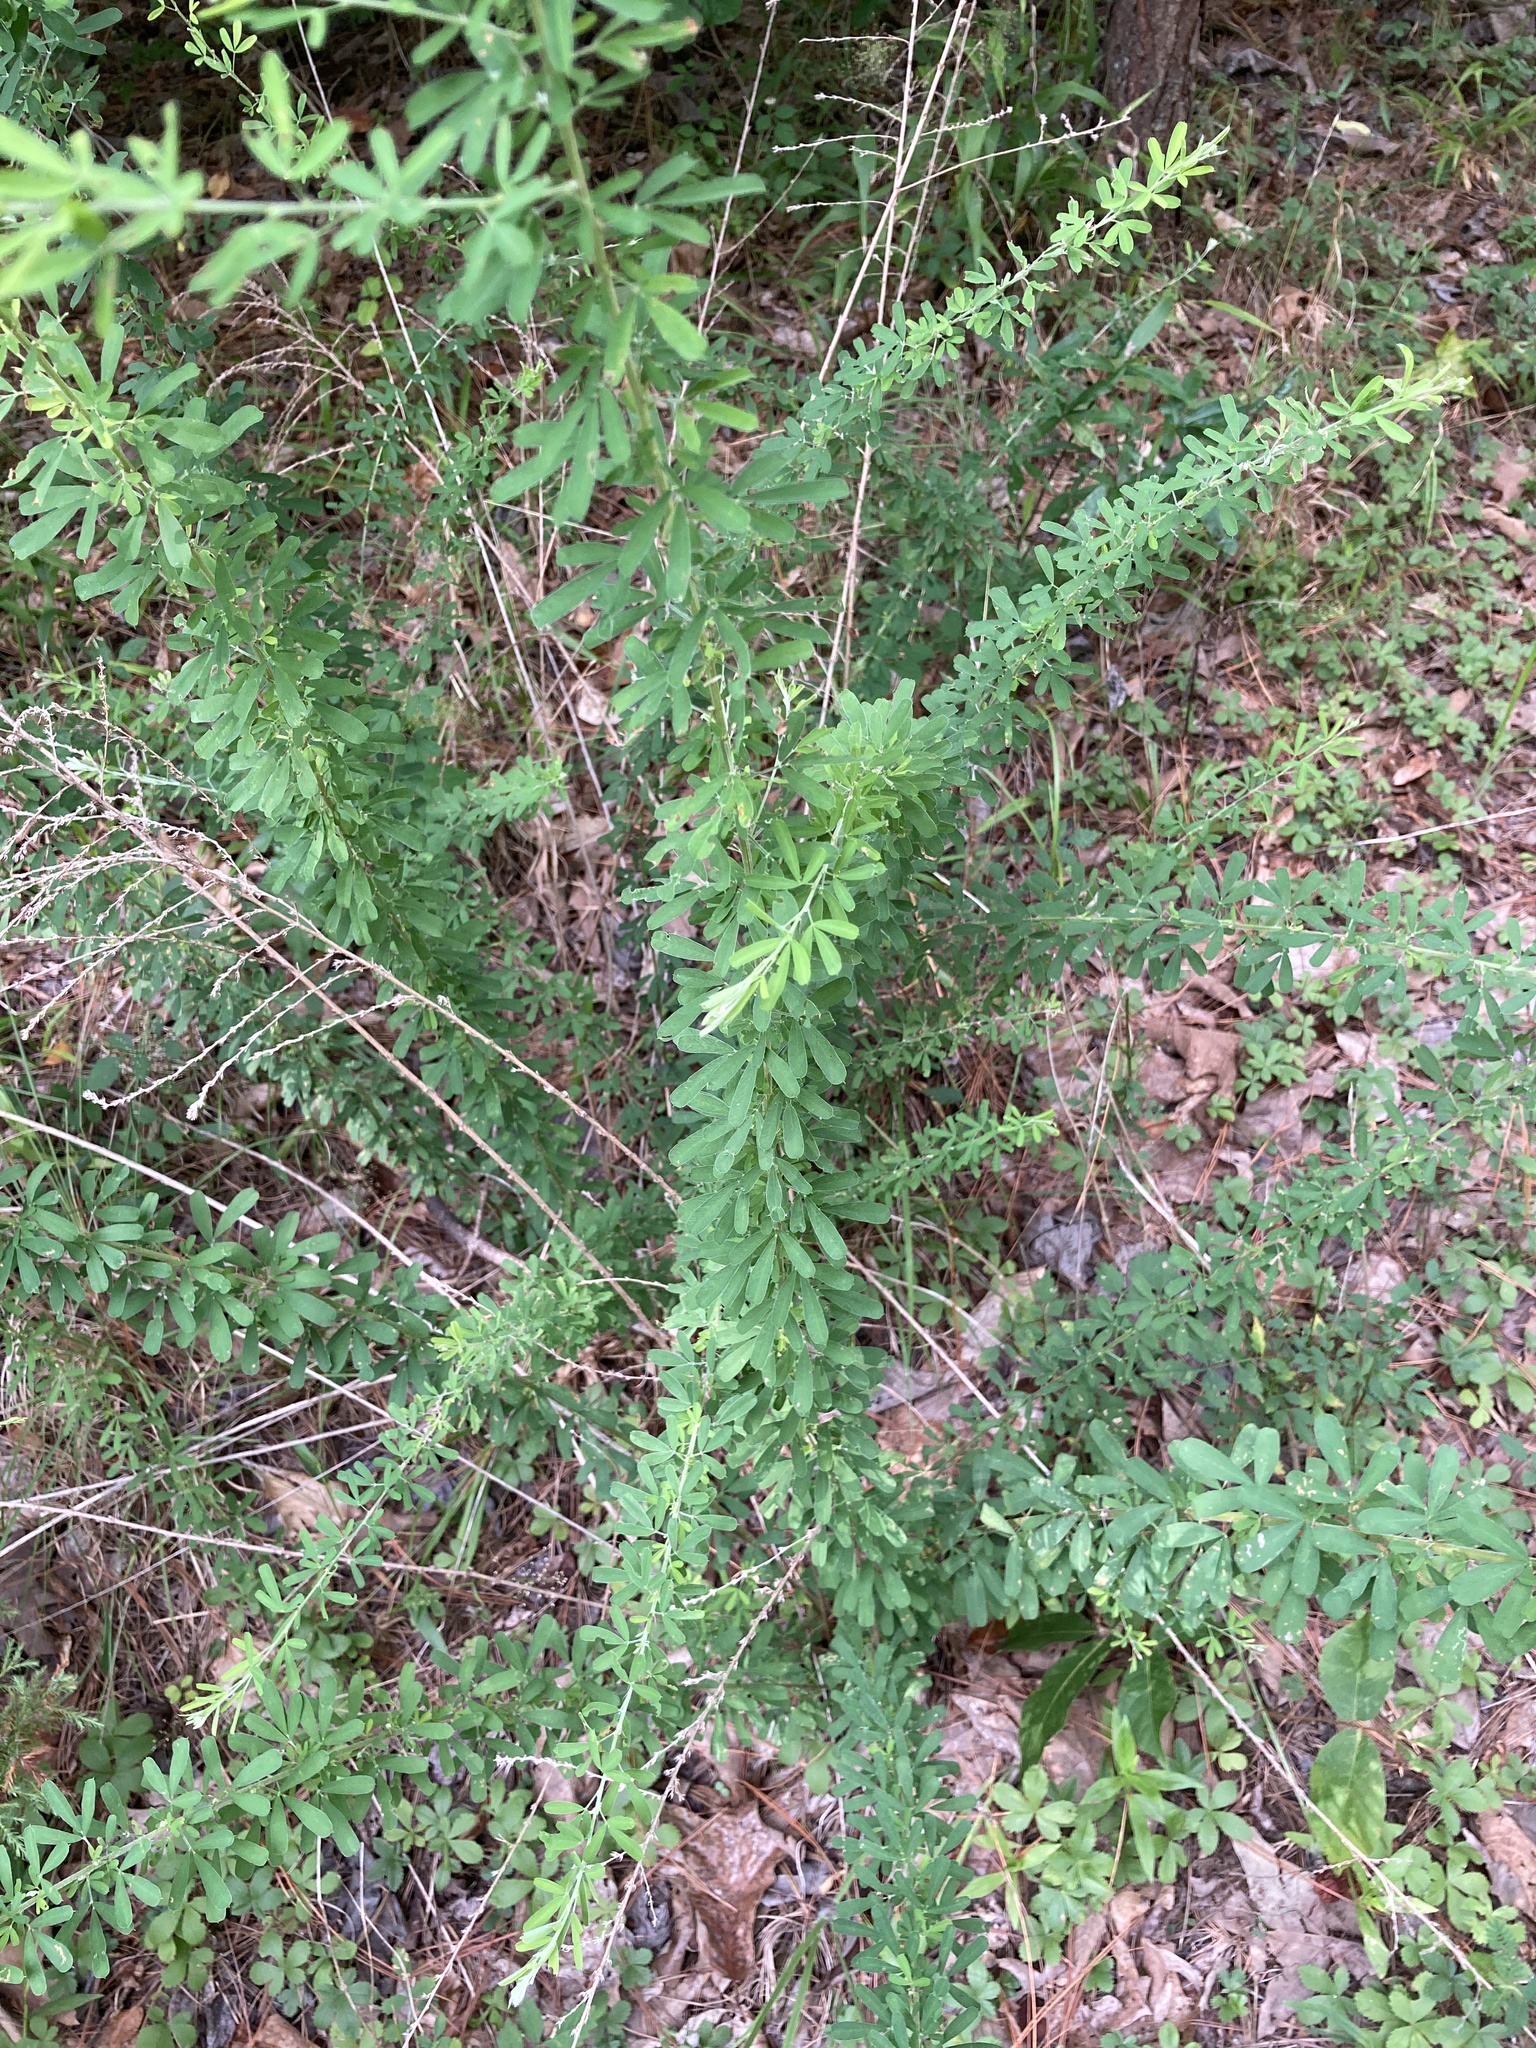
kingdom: Plantae
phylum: Tracheophyta
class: Magnoliopsida
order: Fabales
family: Fabaceae
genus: Lespedeza
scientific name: Lespedeza cuneata
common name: Chinese bush-clover
